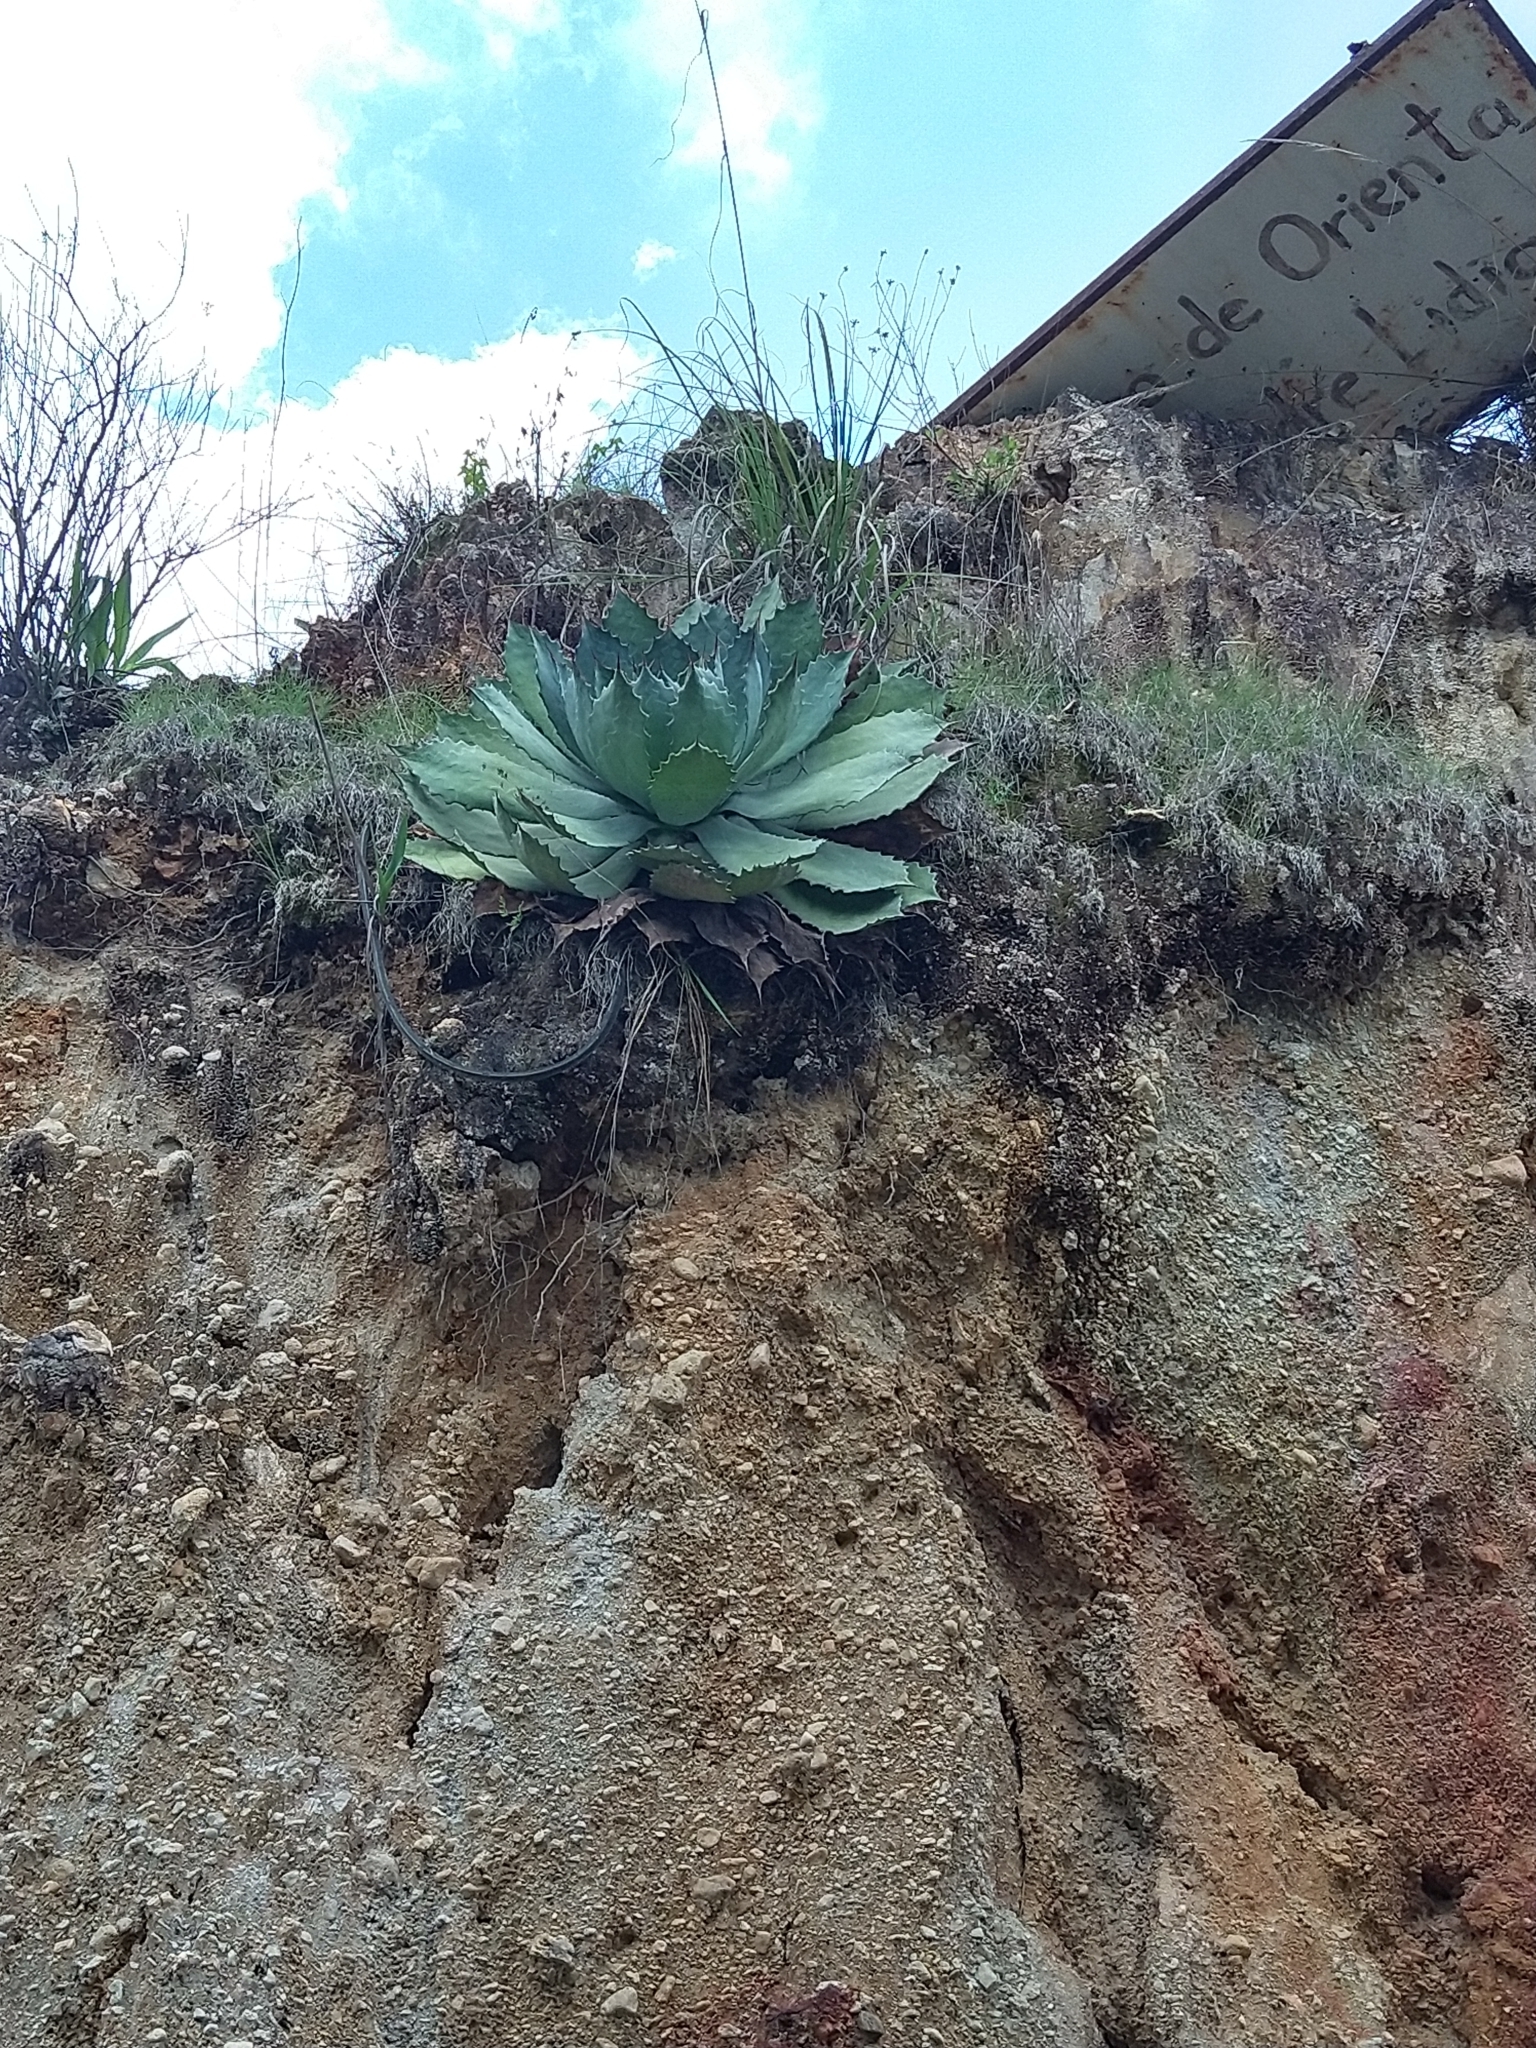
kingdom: Plantae
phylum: Tracheophyta
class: Liliopsida
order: Asparagales
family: Asparagaceae
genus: Agave
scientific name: Agave guadalajarana
